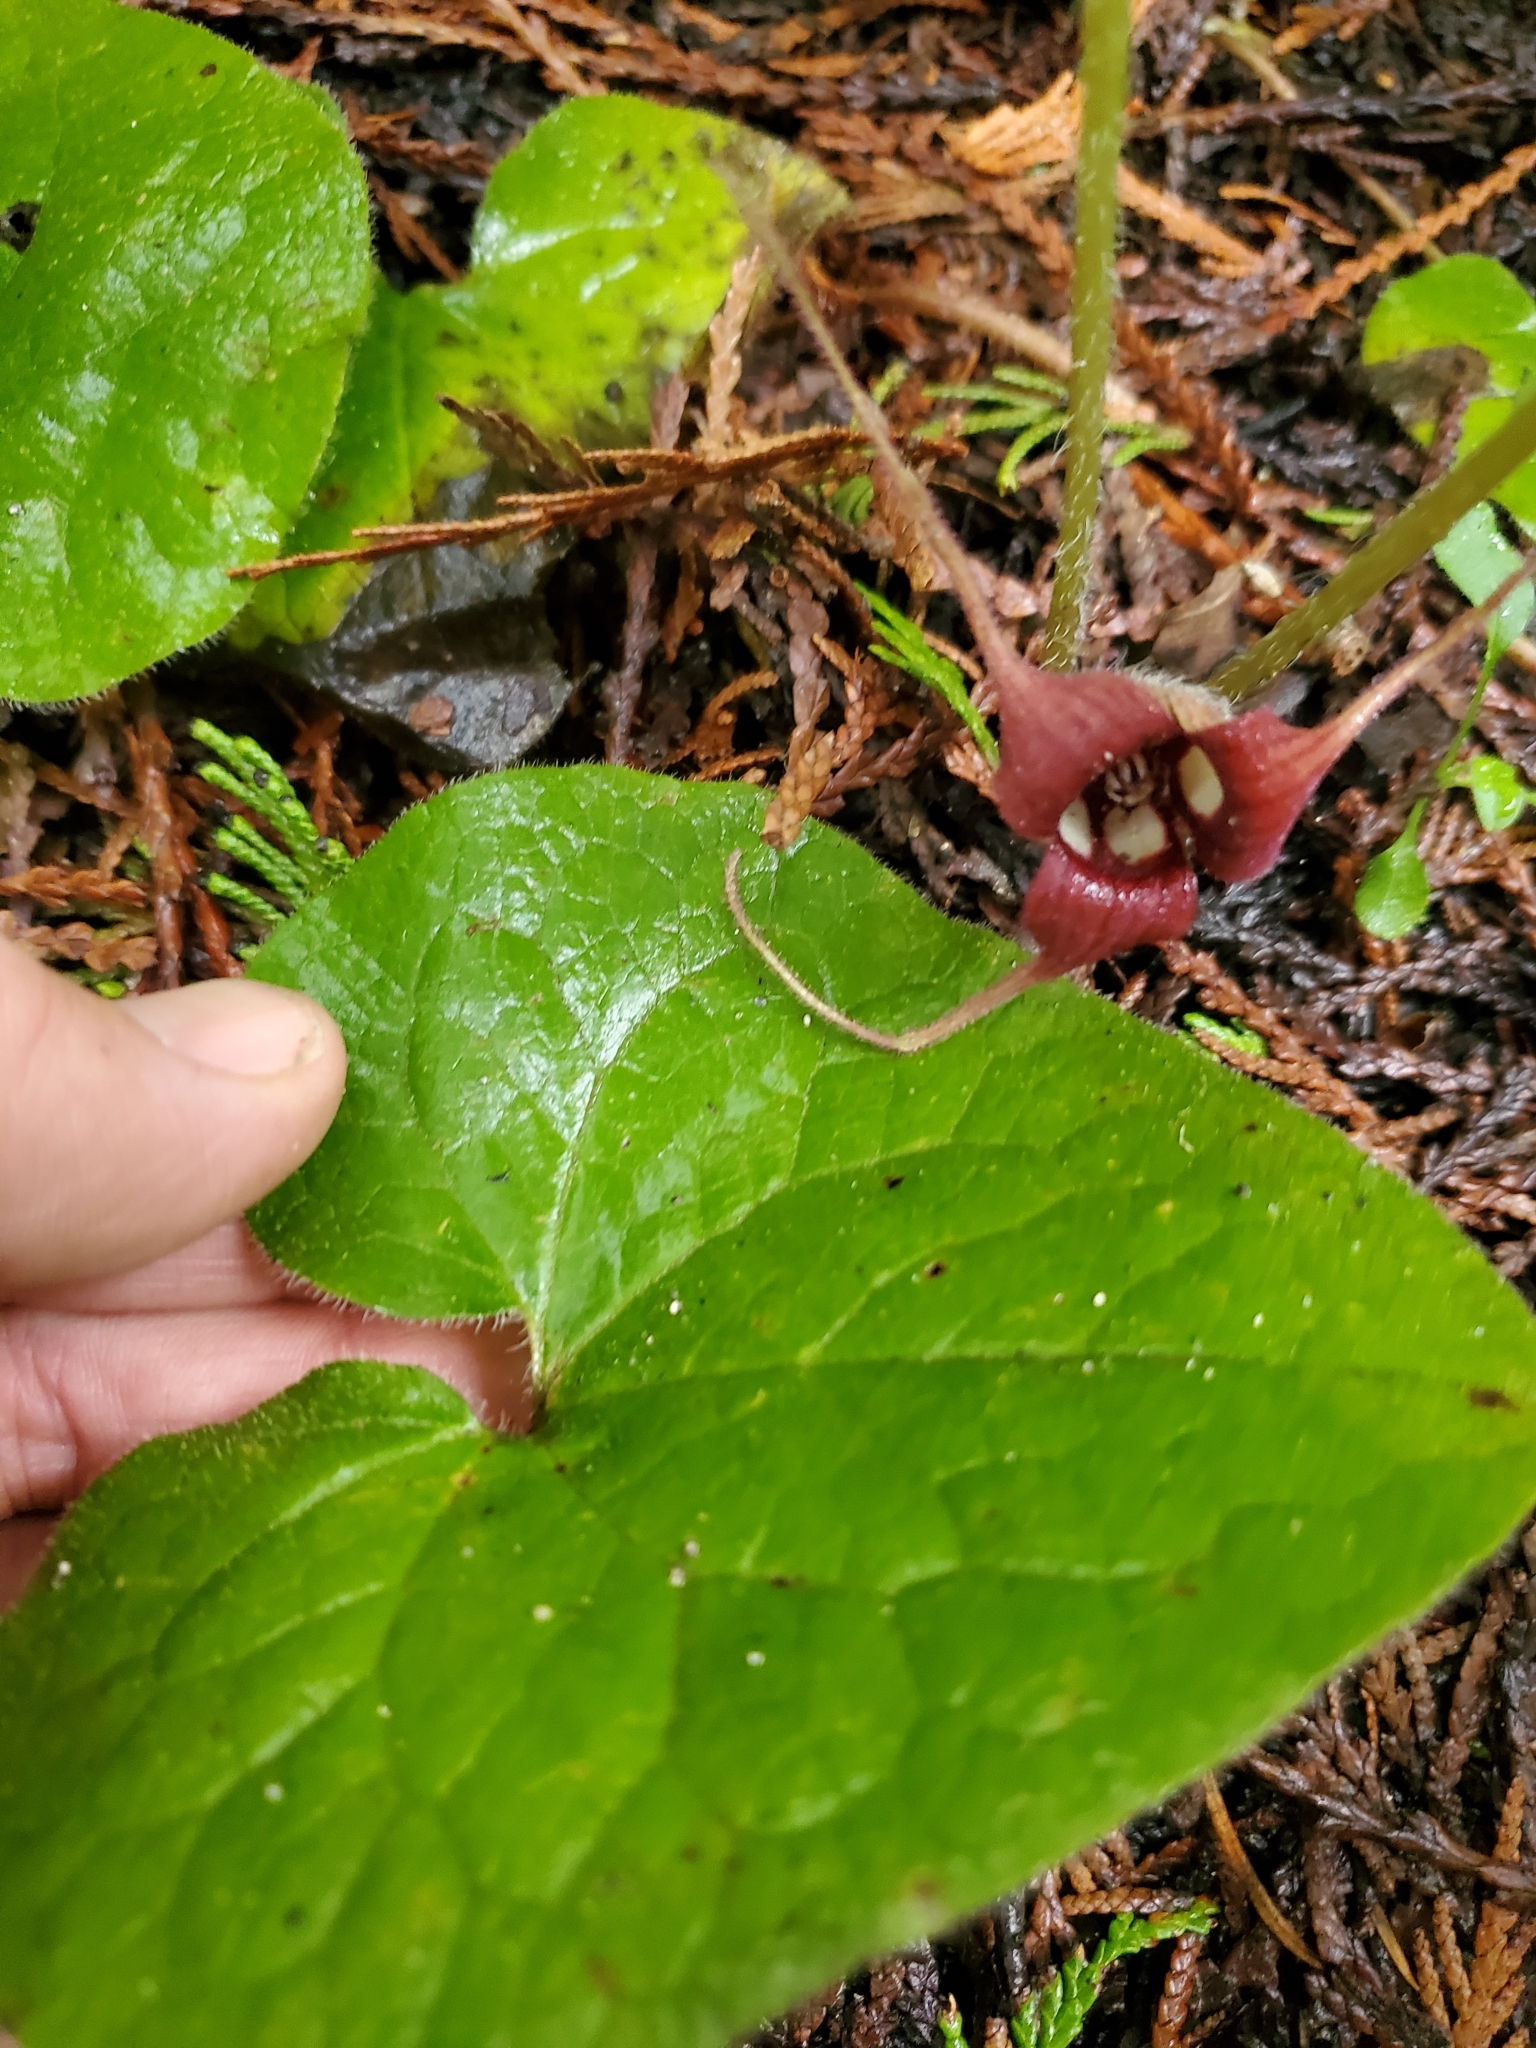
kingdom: Plantae
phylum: Tracheophyta
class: Magnoliopsida
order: Piperales
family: Aristolochiaceae
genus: Asarum
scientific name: Asarum caudatum
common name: Wild ginger
